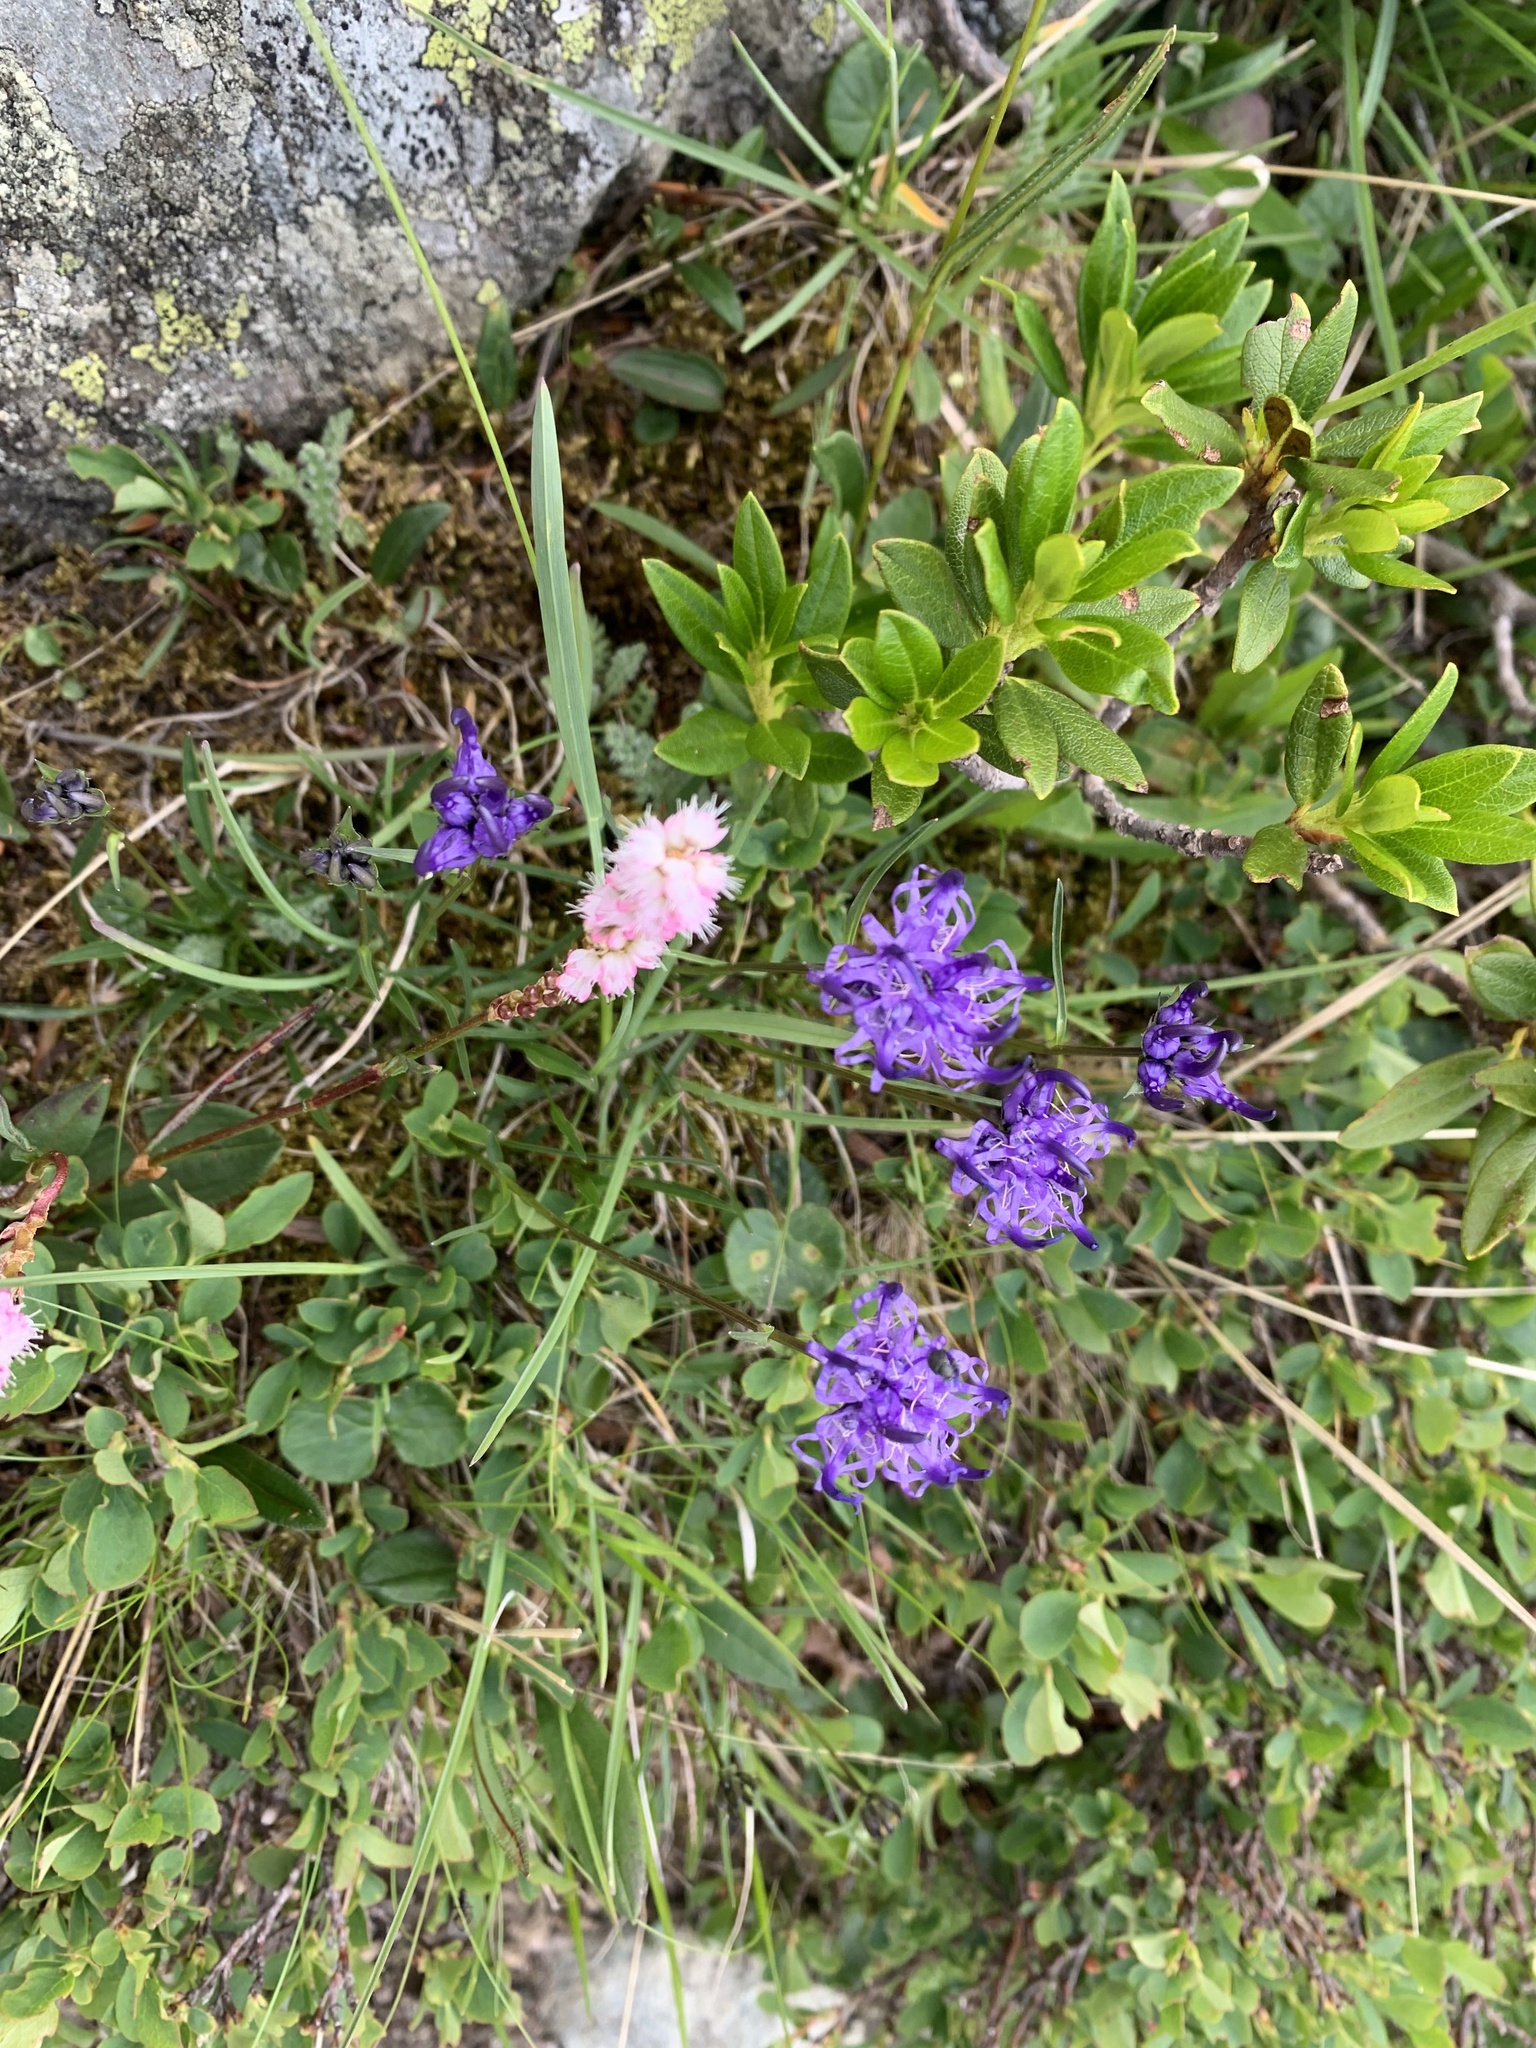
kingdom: Plantae
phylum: Tracheophyta
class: Magnoliopsida
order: Asterales
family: Campanulaceae
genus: Phyteuma
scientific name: Phyteuma hemisphaericum
